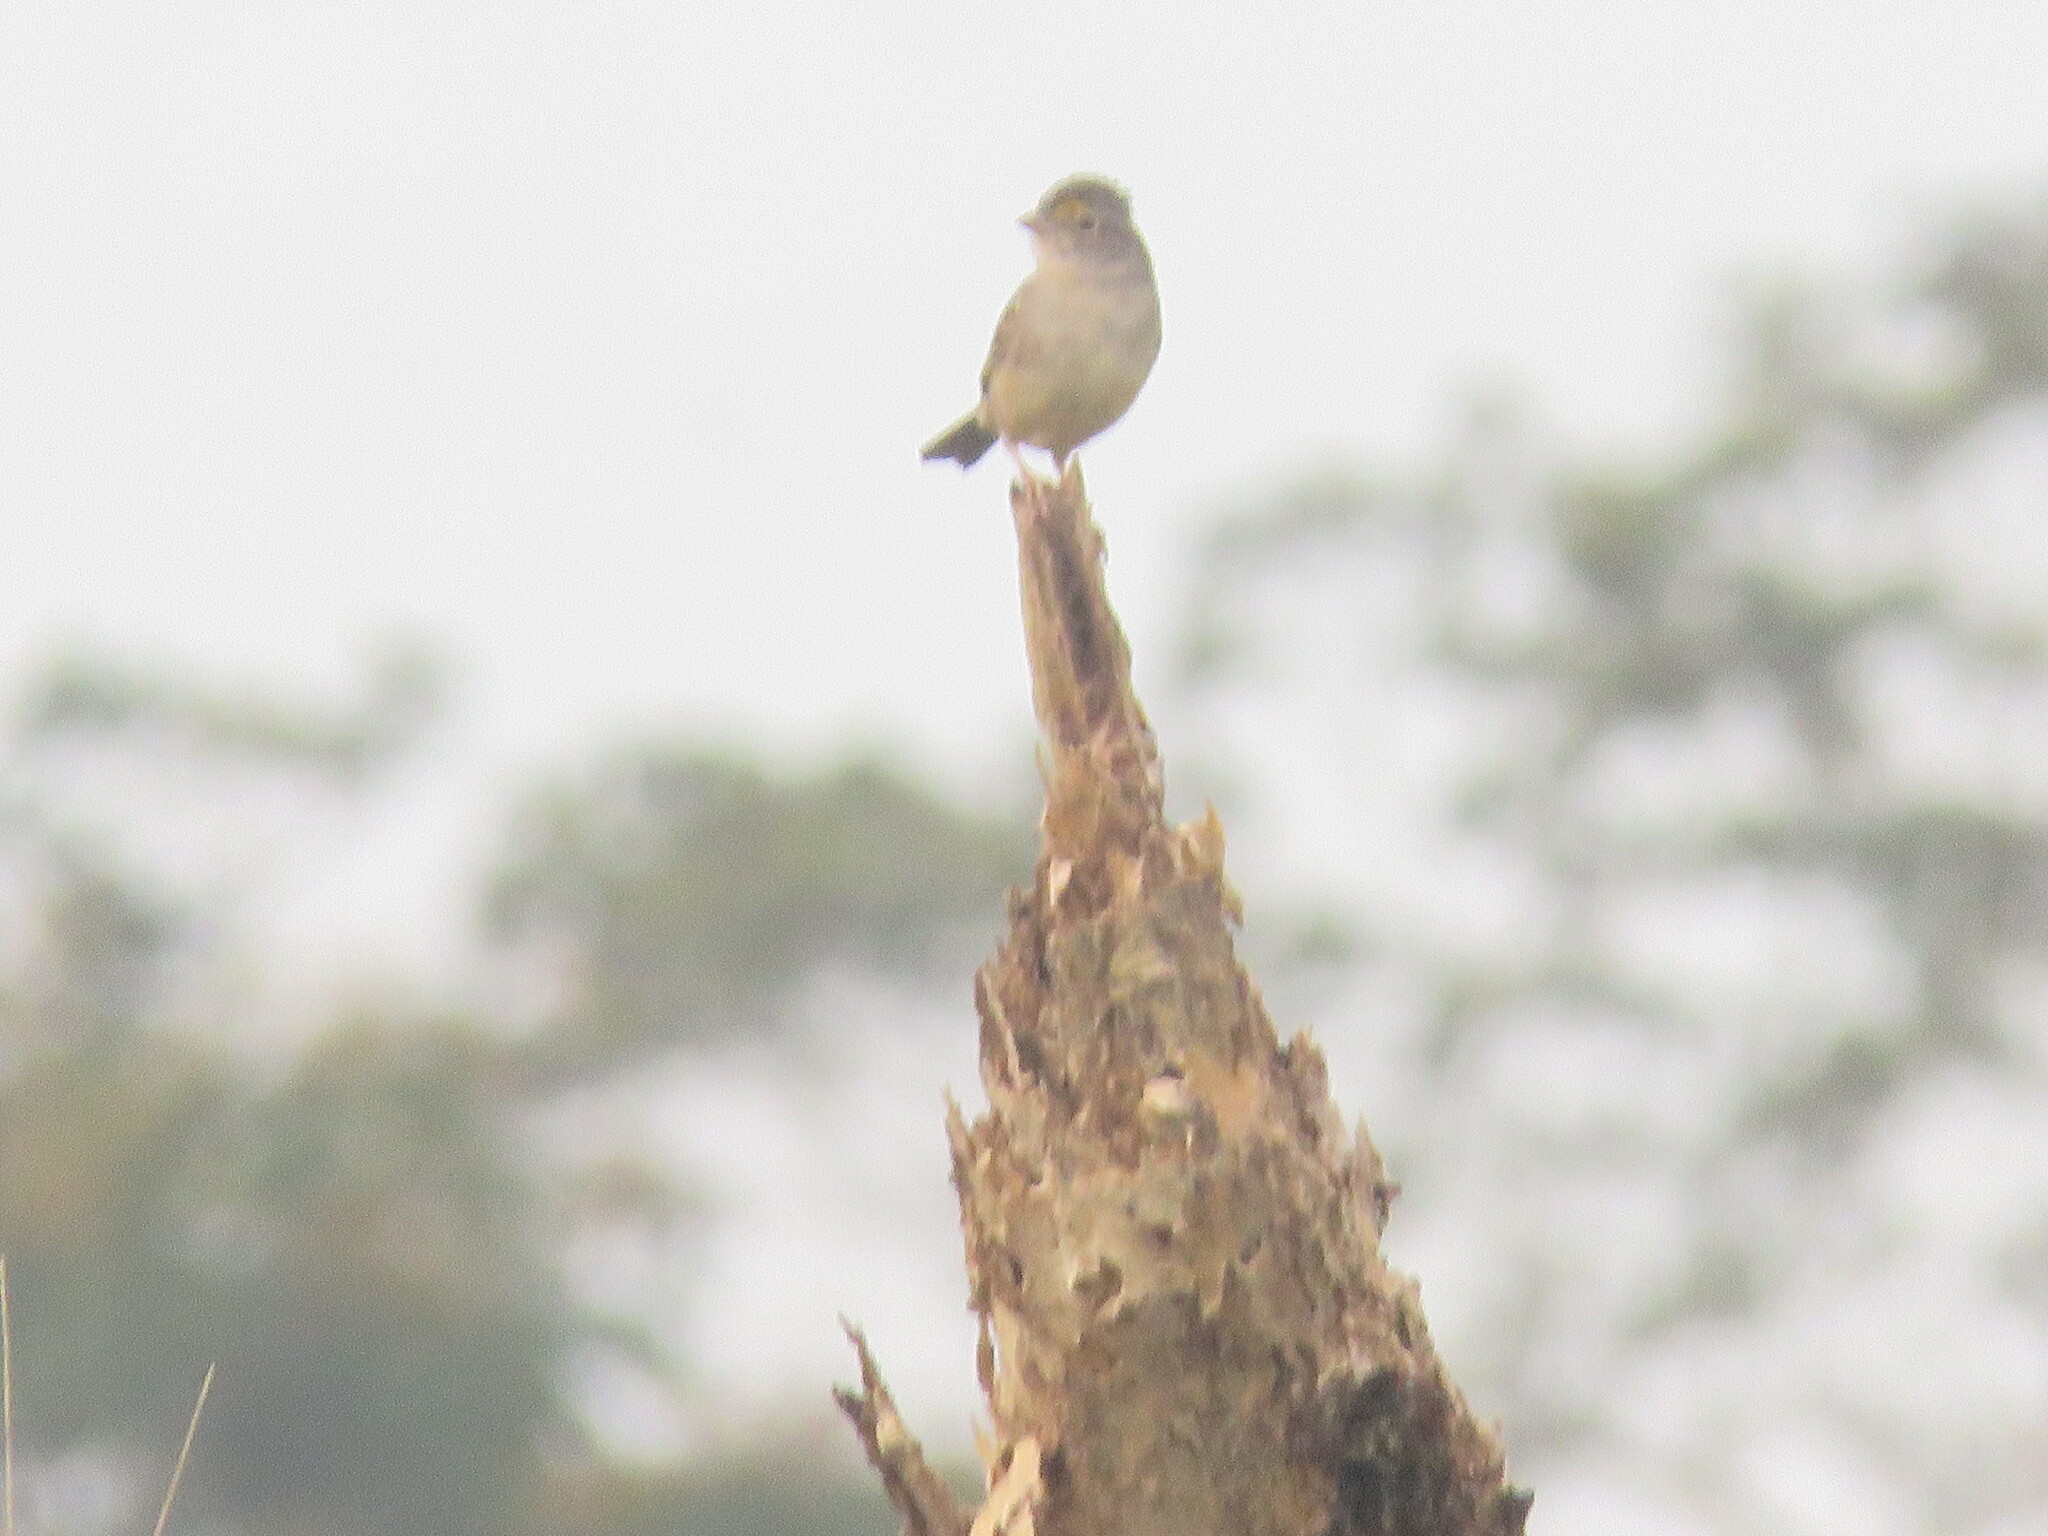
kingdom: Animalia
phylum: Chordata
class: Aves
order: Passeriformes
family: Passerellidae
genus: Ammodramus
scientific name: Ammodramus humeralis
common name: Grassland sparrow
